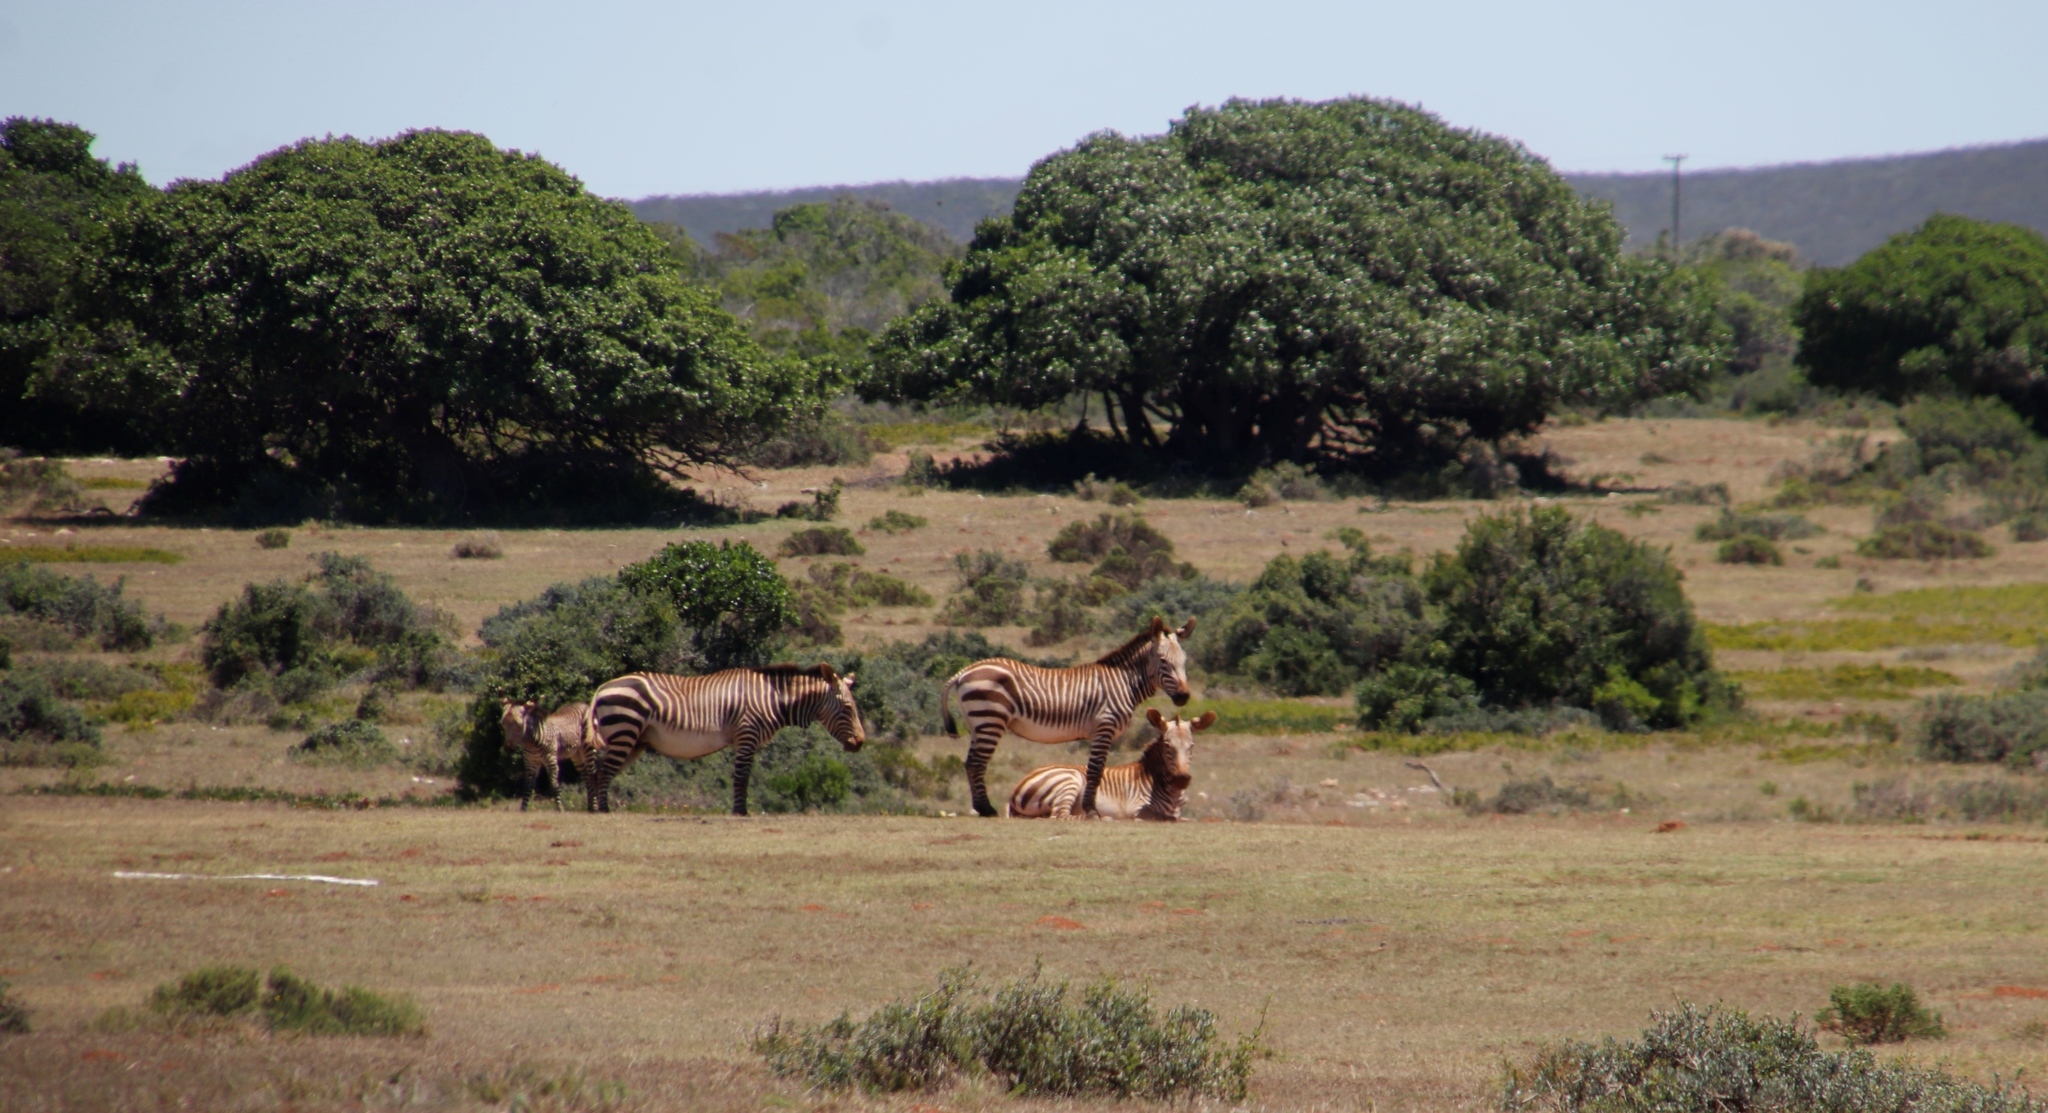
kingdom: Animalia
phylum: Chordata
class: Mammalia
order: Perissodactyla
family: Equidae
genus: Equus
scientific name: Equus zebra
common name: Mountain zebra
